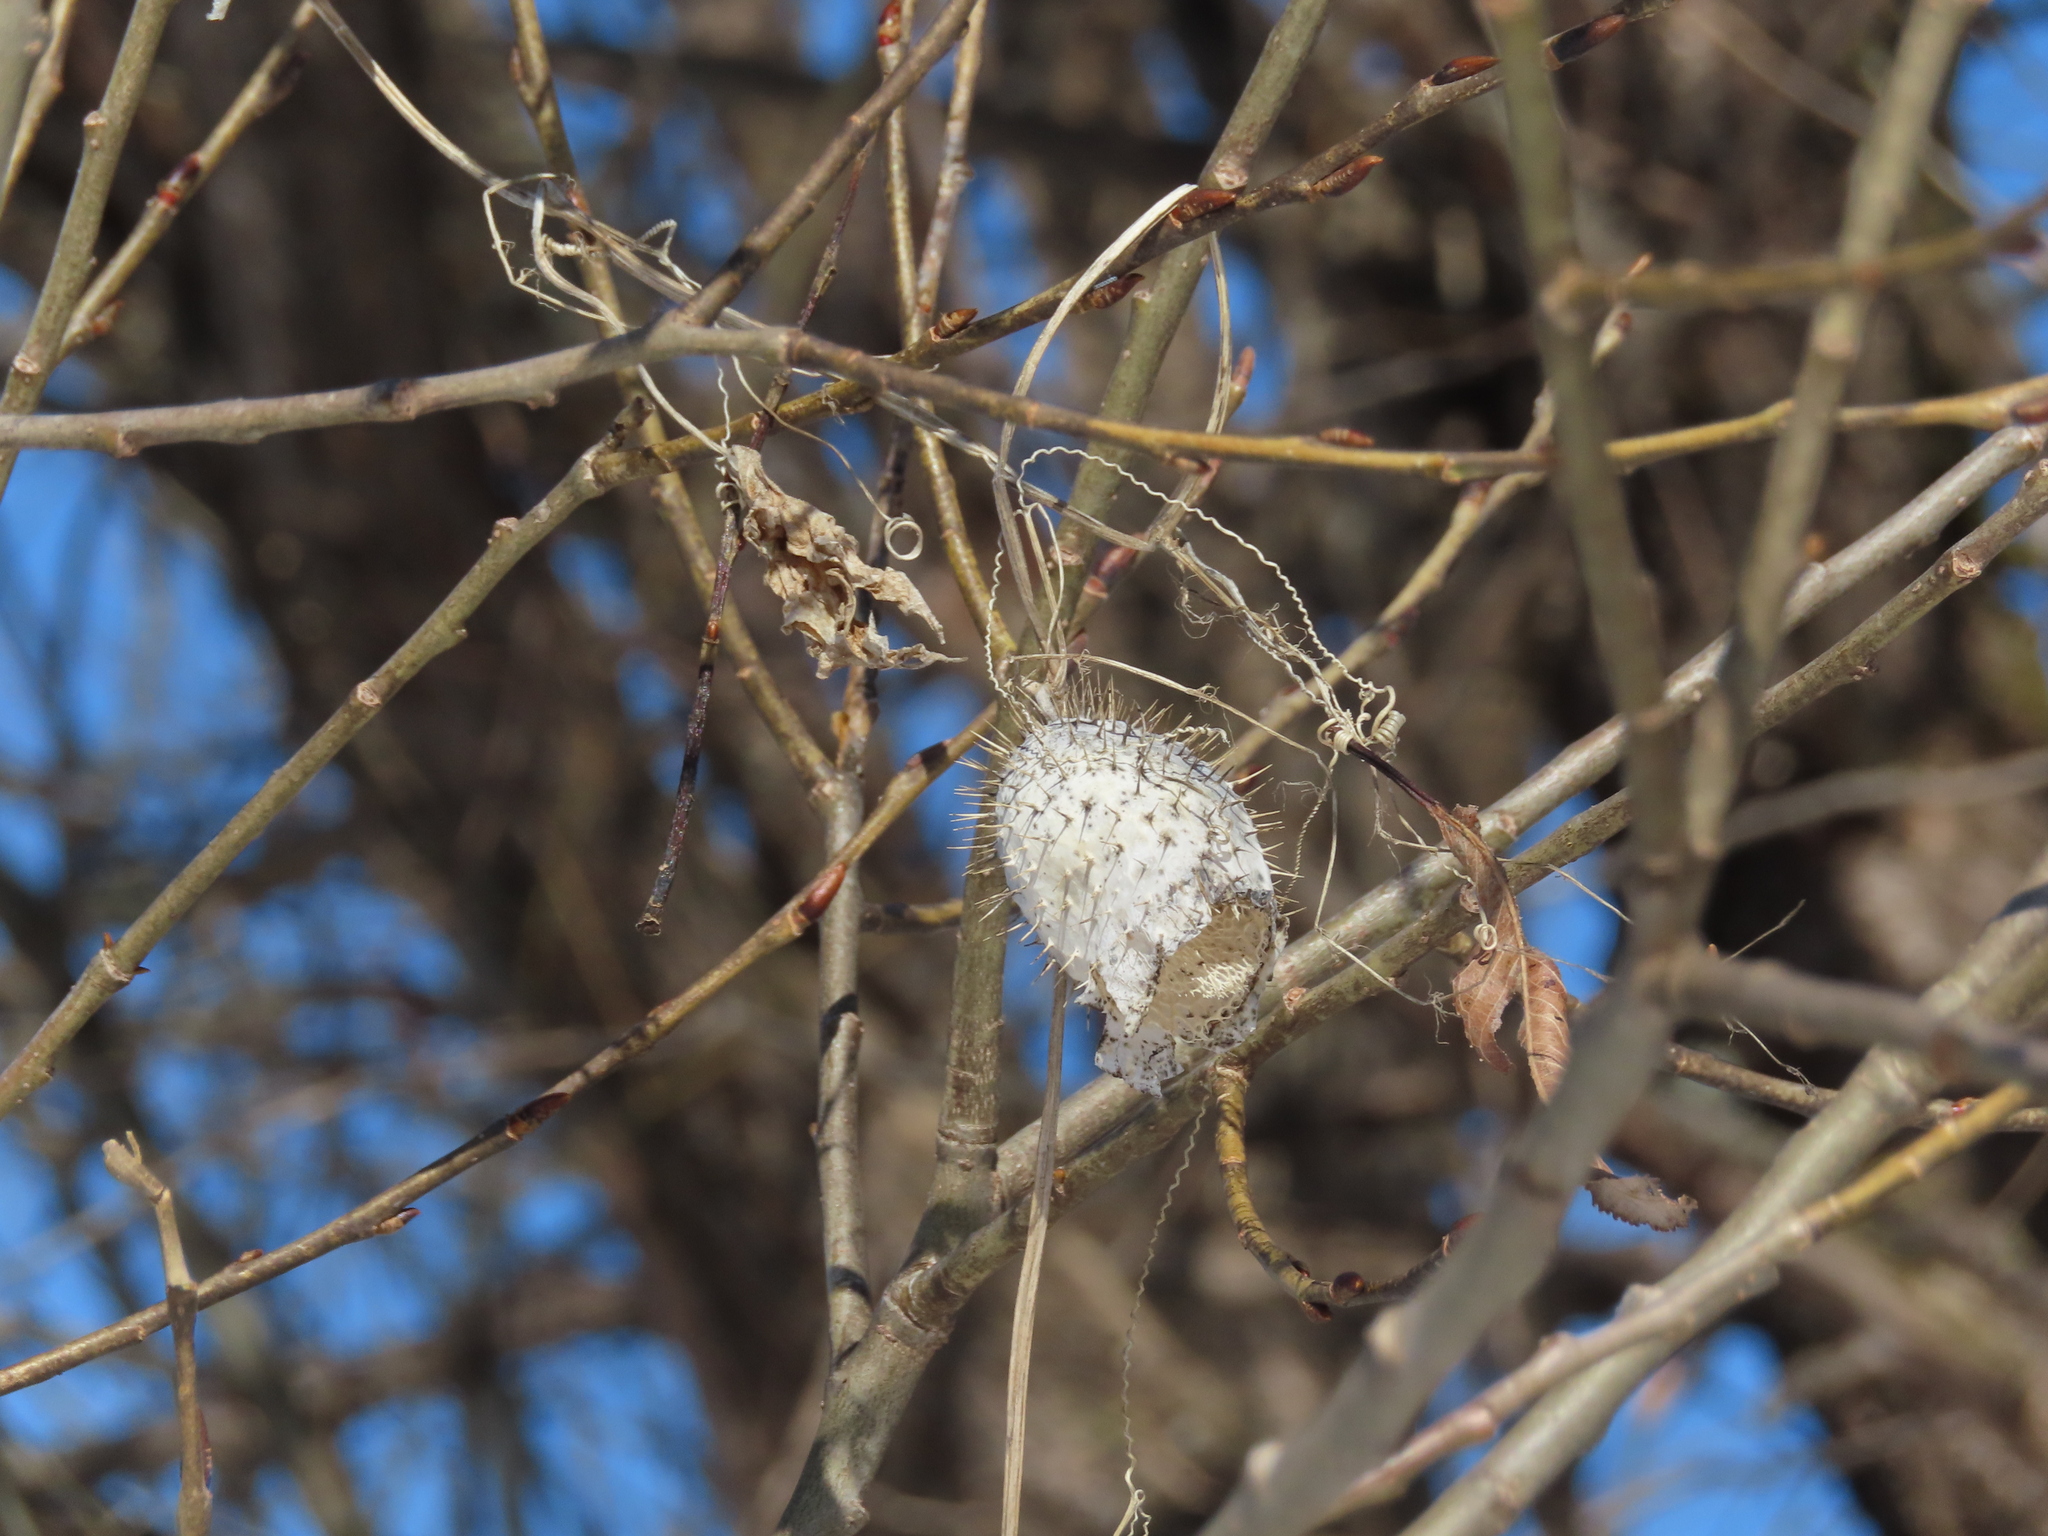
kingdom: Plantae
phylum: Tracheophyta
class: Magnoliopsida
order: Cucurbitales
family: Cucurbitaceae
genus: Echinocystis
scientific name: Echinocystis lobata
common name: Wild cucumber
